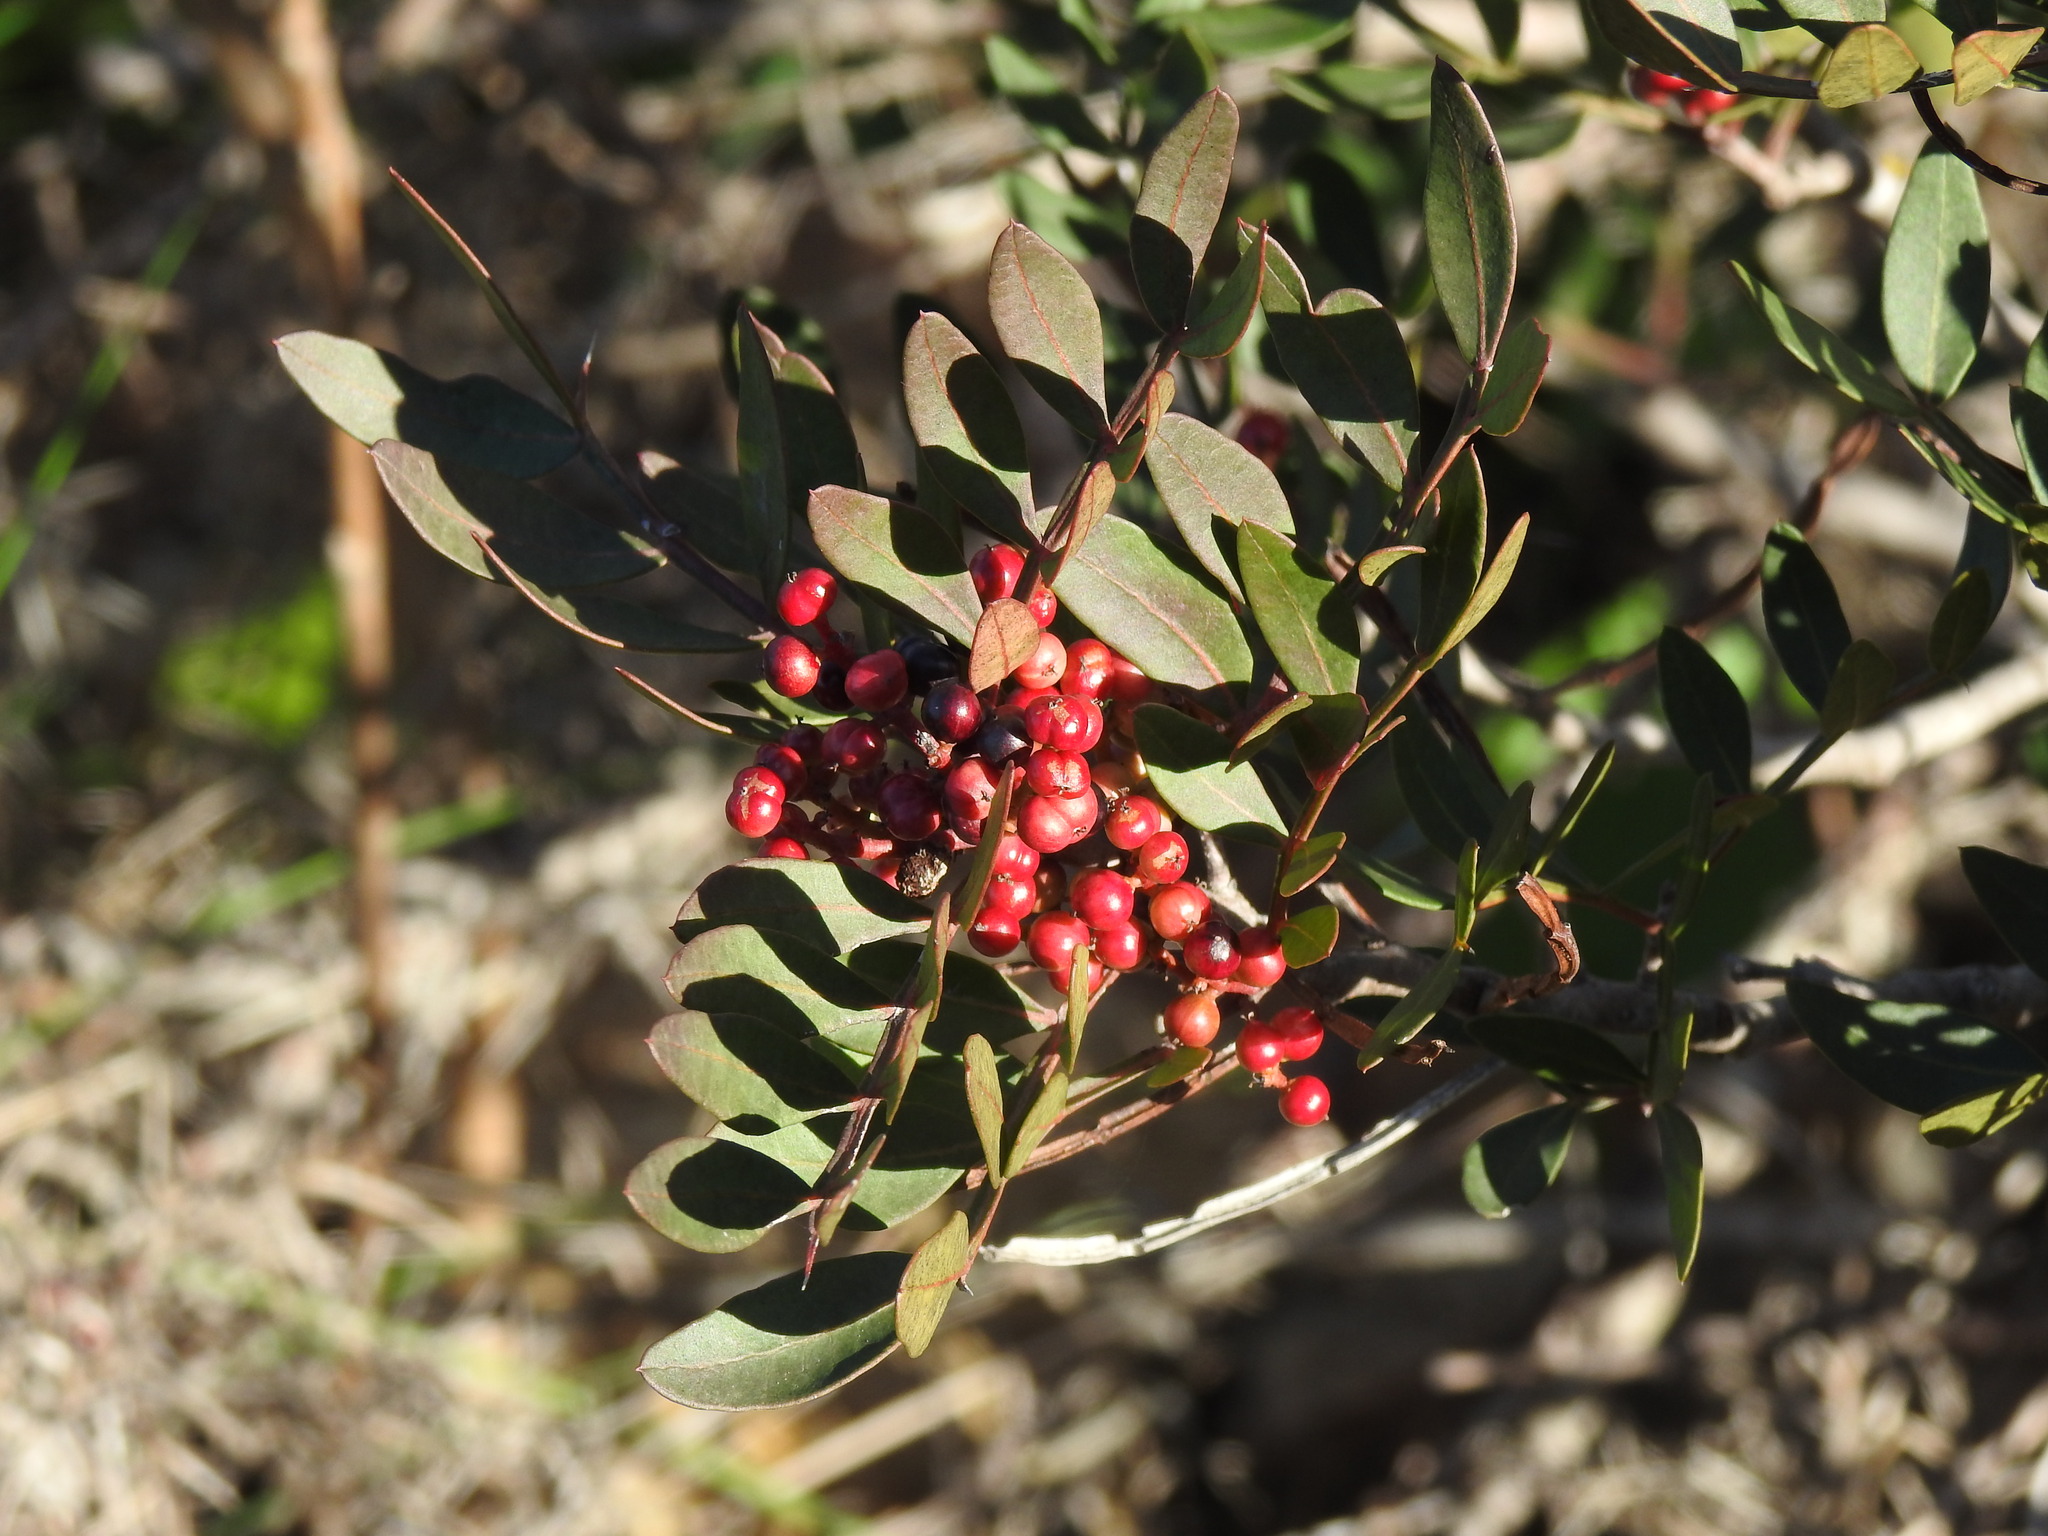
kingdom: Plantae
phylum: Tracheophyta
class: Magnoliopsida
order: Sapindales
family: Anacardiaceae
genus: Pistacia
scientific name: Pistacia lentiscus
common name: Lentisk
